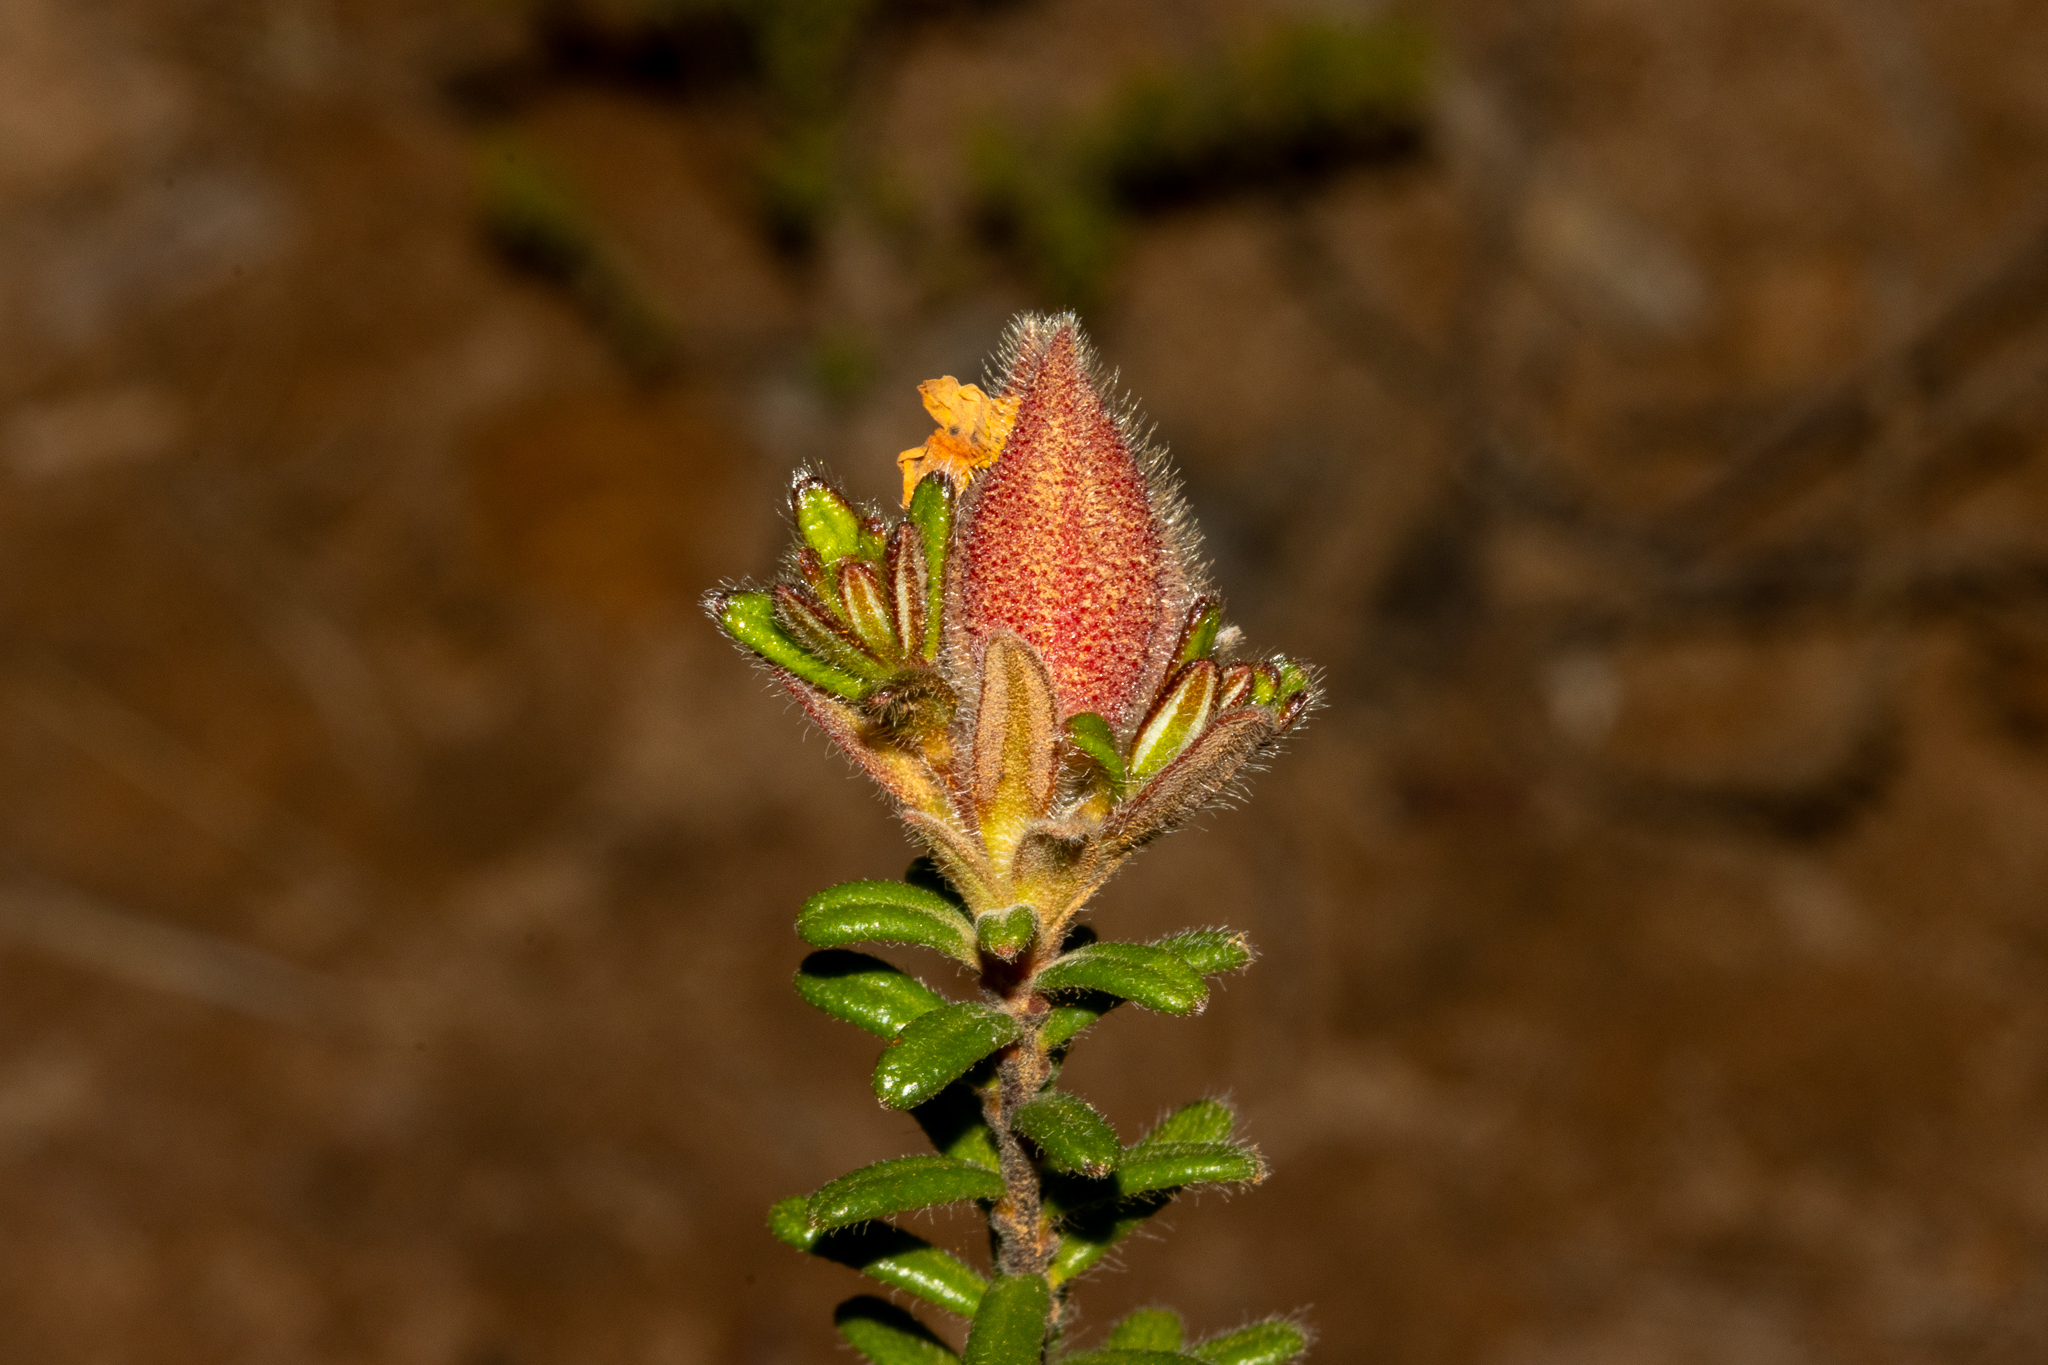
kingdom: Plantae
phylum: Tracheophyta
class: Magnoliopsida
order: Dilleniales
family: Dilleniaceae
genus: Hibbertia
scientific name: Hibbertia platyphylla
